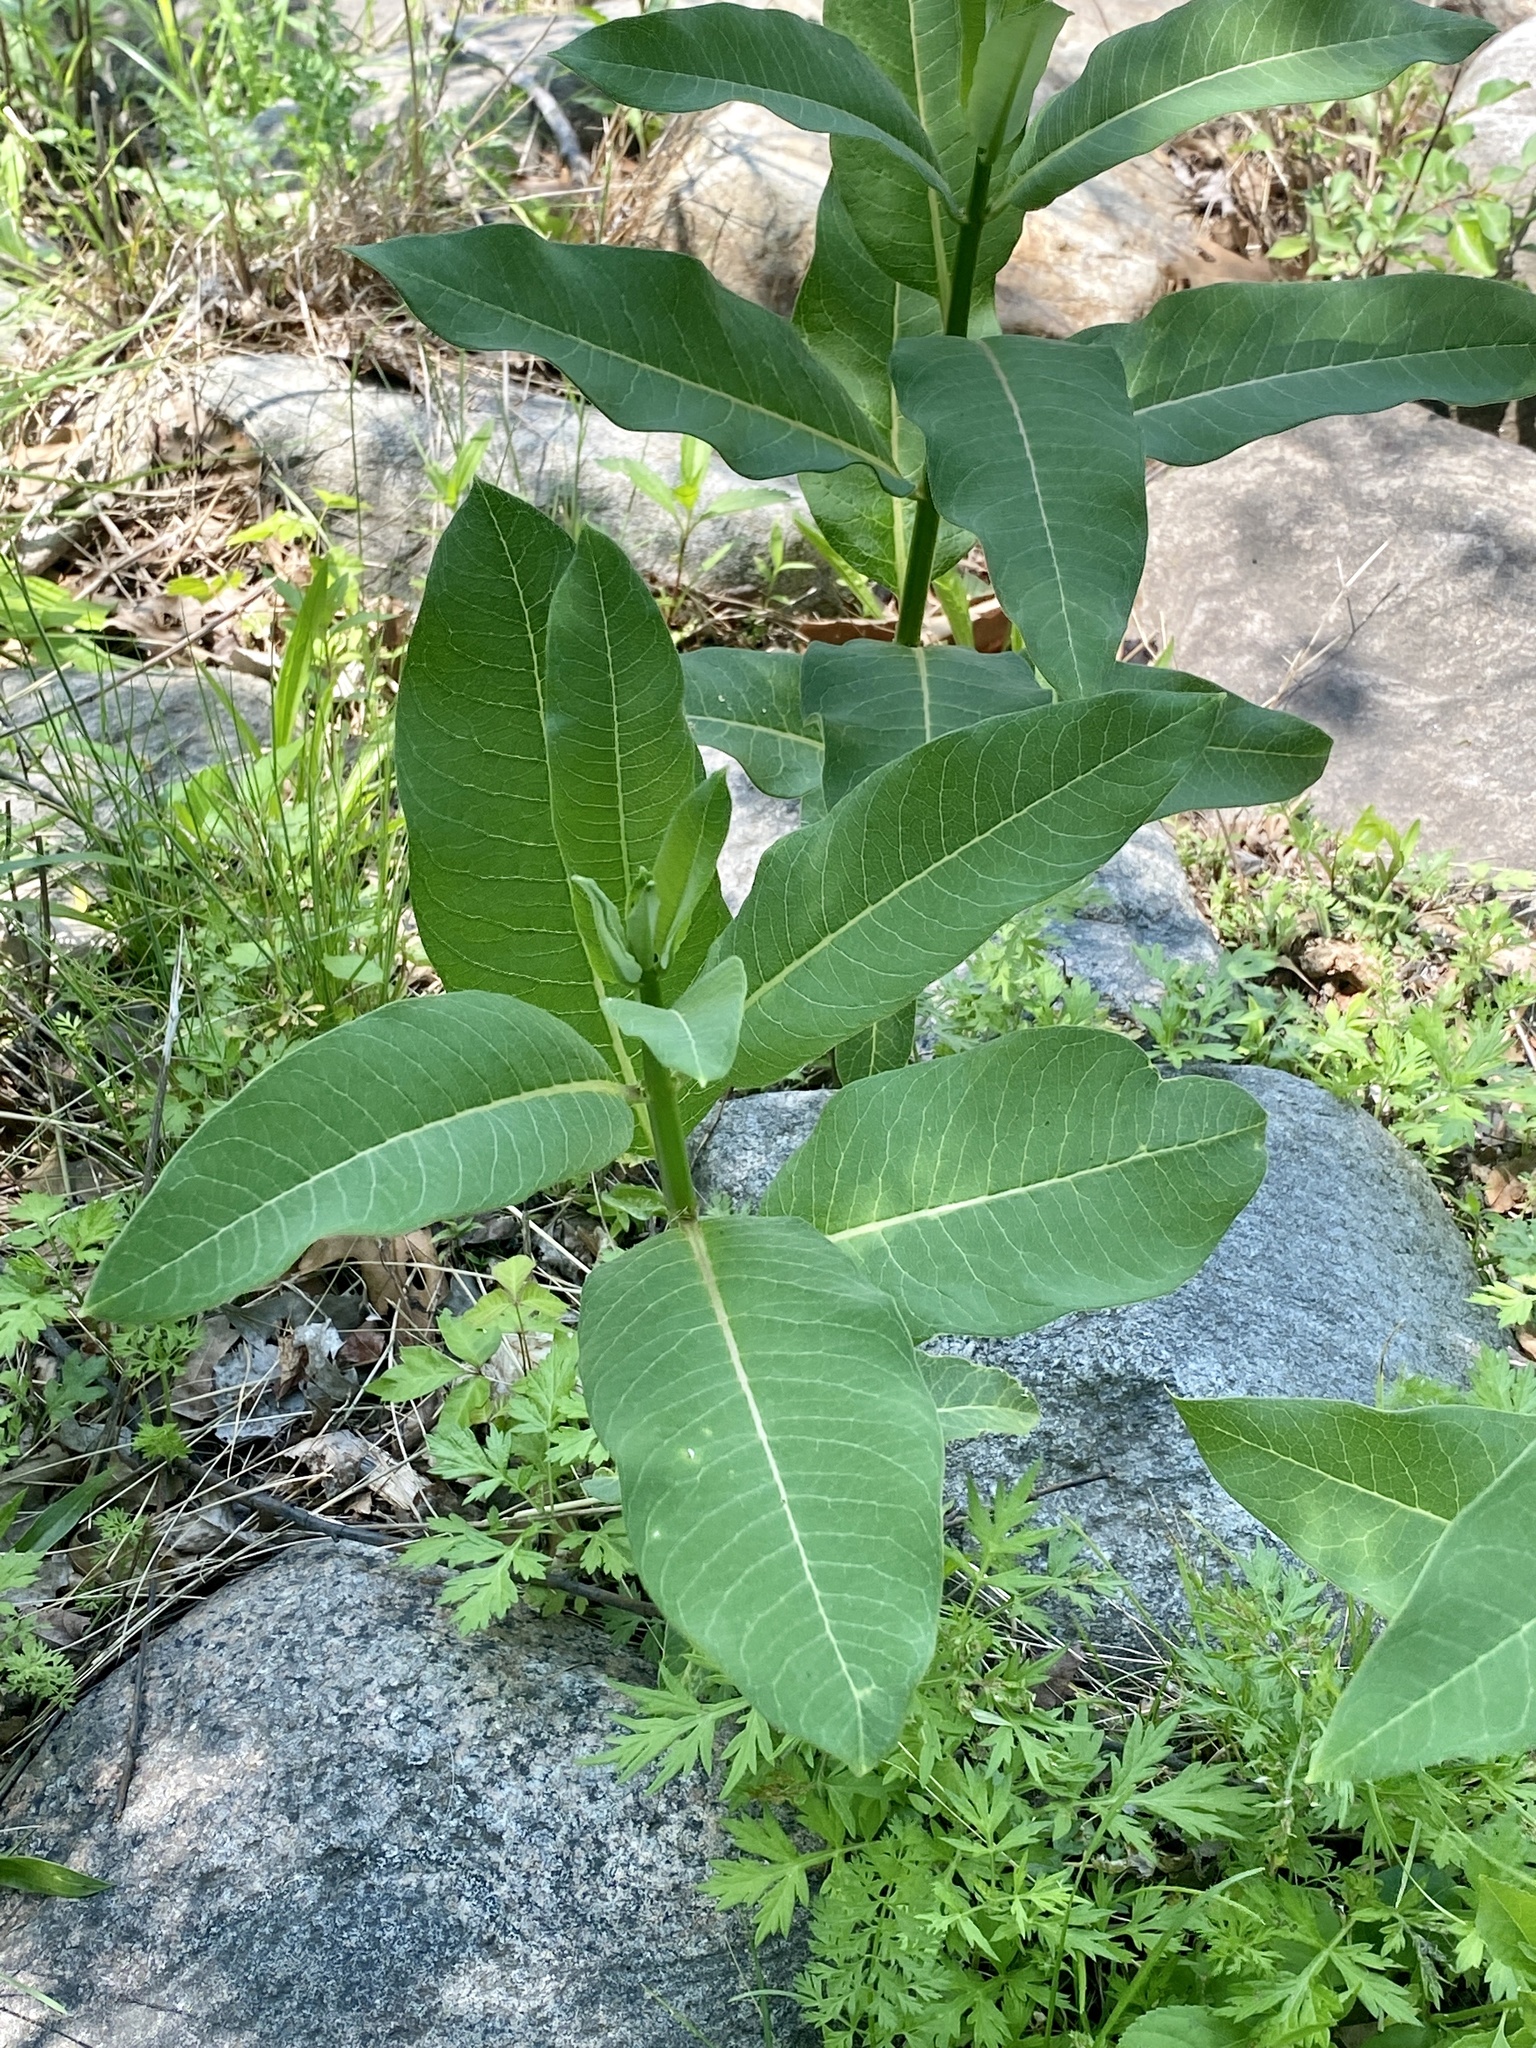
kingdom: Plantae
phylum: Tracheophyta
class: Magnoliopsida
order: Gentianales
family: Apocynaceae
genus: Asclepias
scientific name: Asclepias syriaca
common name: Common milkweed
